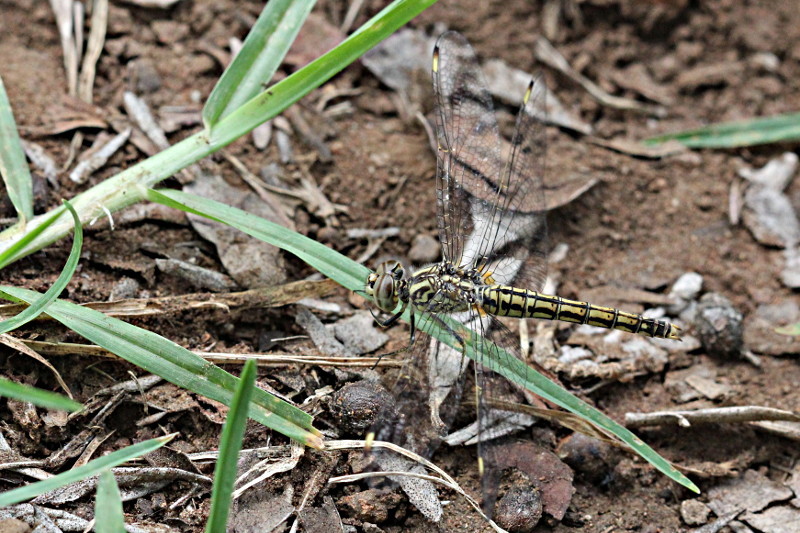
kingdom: Animalia
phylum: Arthropoda
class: Insecta
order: Odonata
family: Libellulidae
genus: Brachythemis
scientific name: Brachythemis leucosticta
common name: Banded groundling
